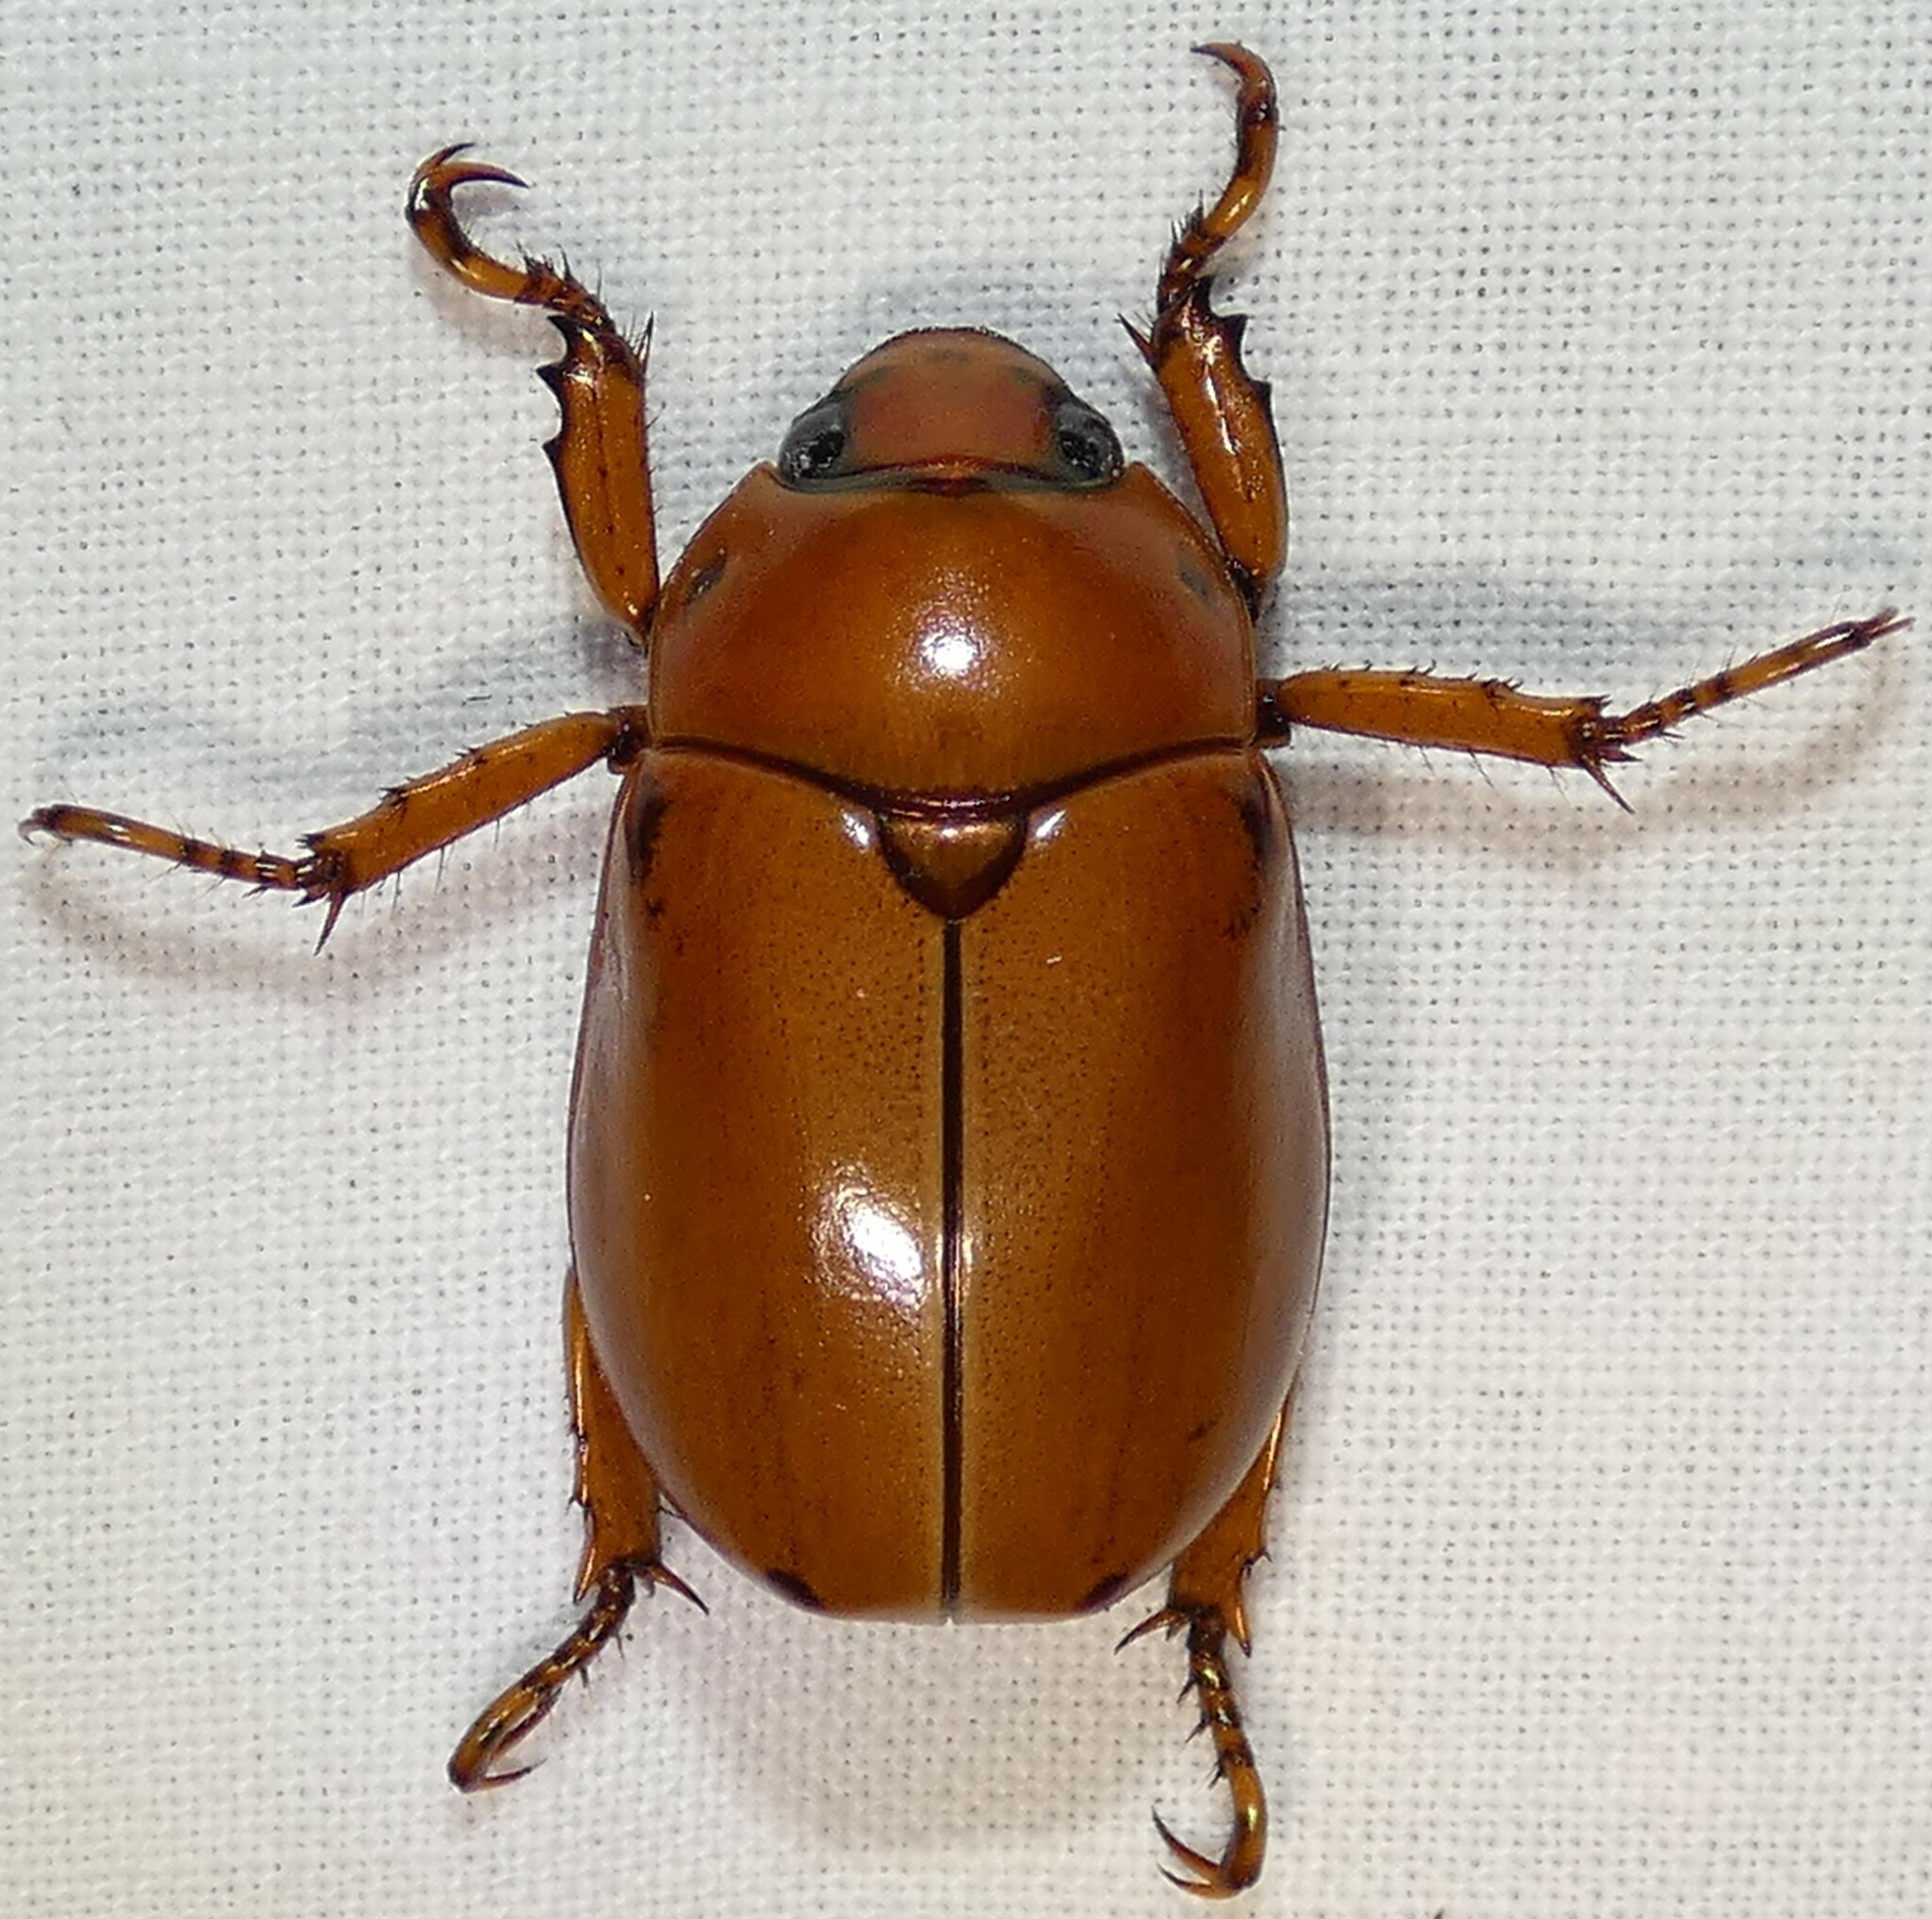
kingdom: Animalia
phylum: Arthropoda
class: Insecta
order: Coleoptera
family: Scarabaeidae
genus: Pelidnota
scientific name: Pelidnota punctata
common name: Grapevine beetle
